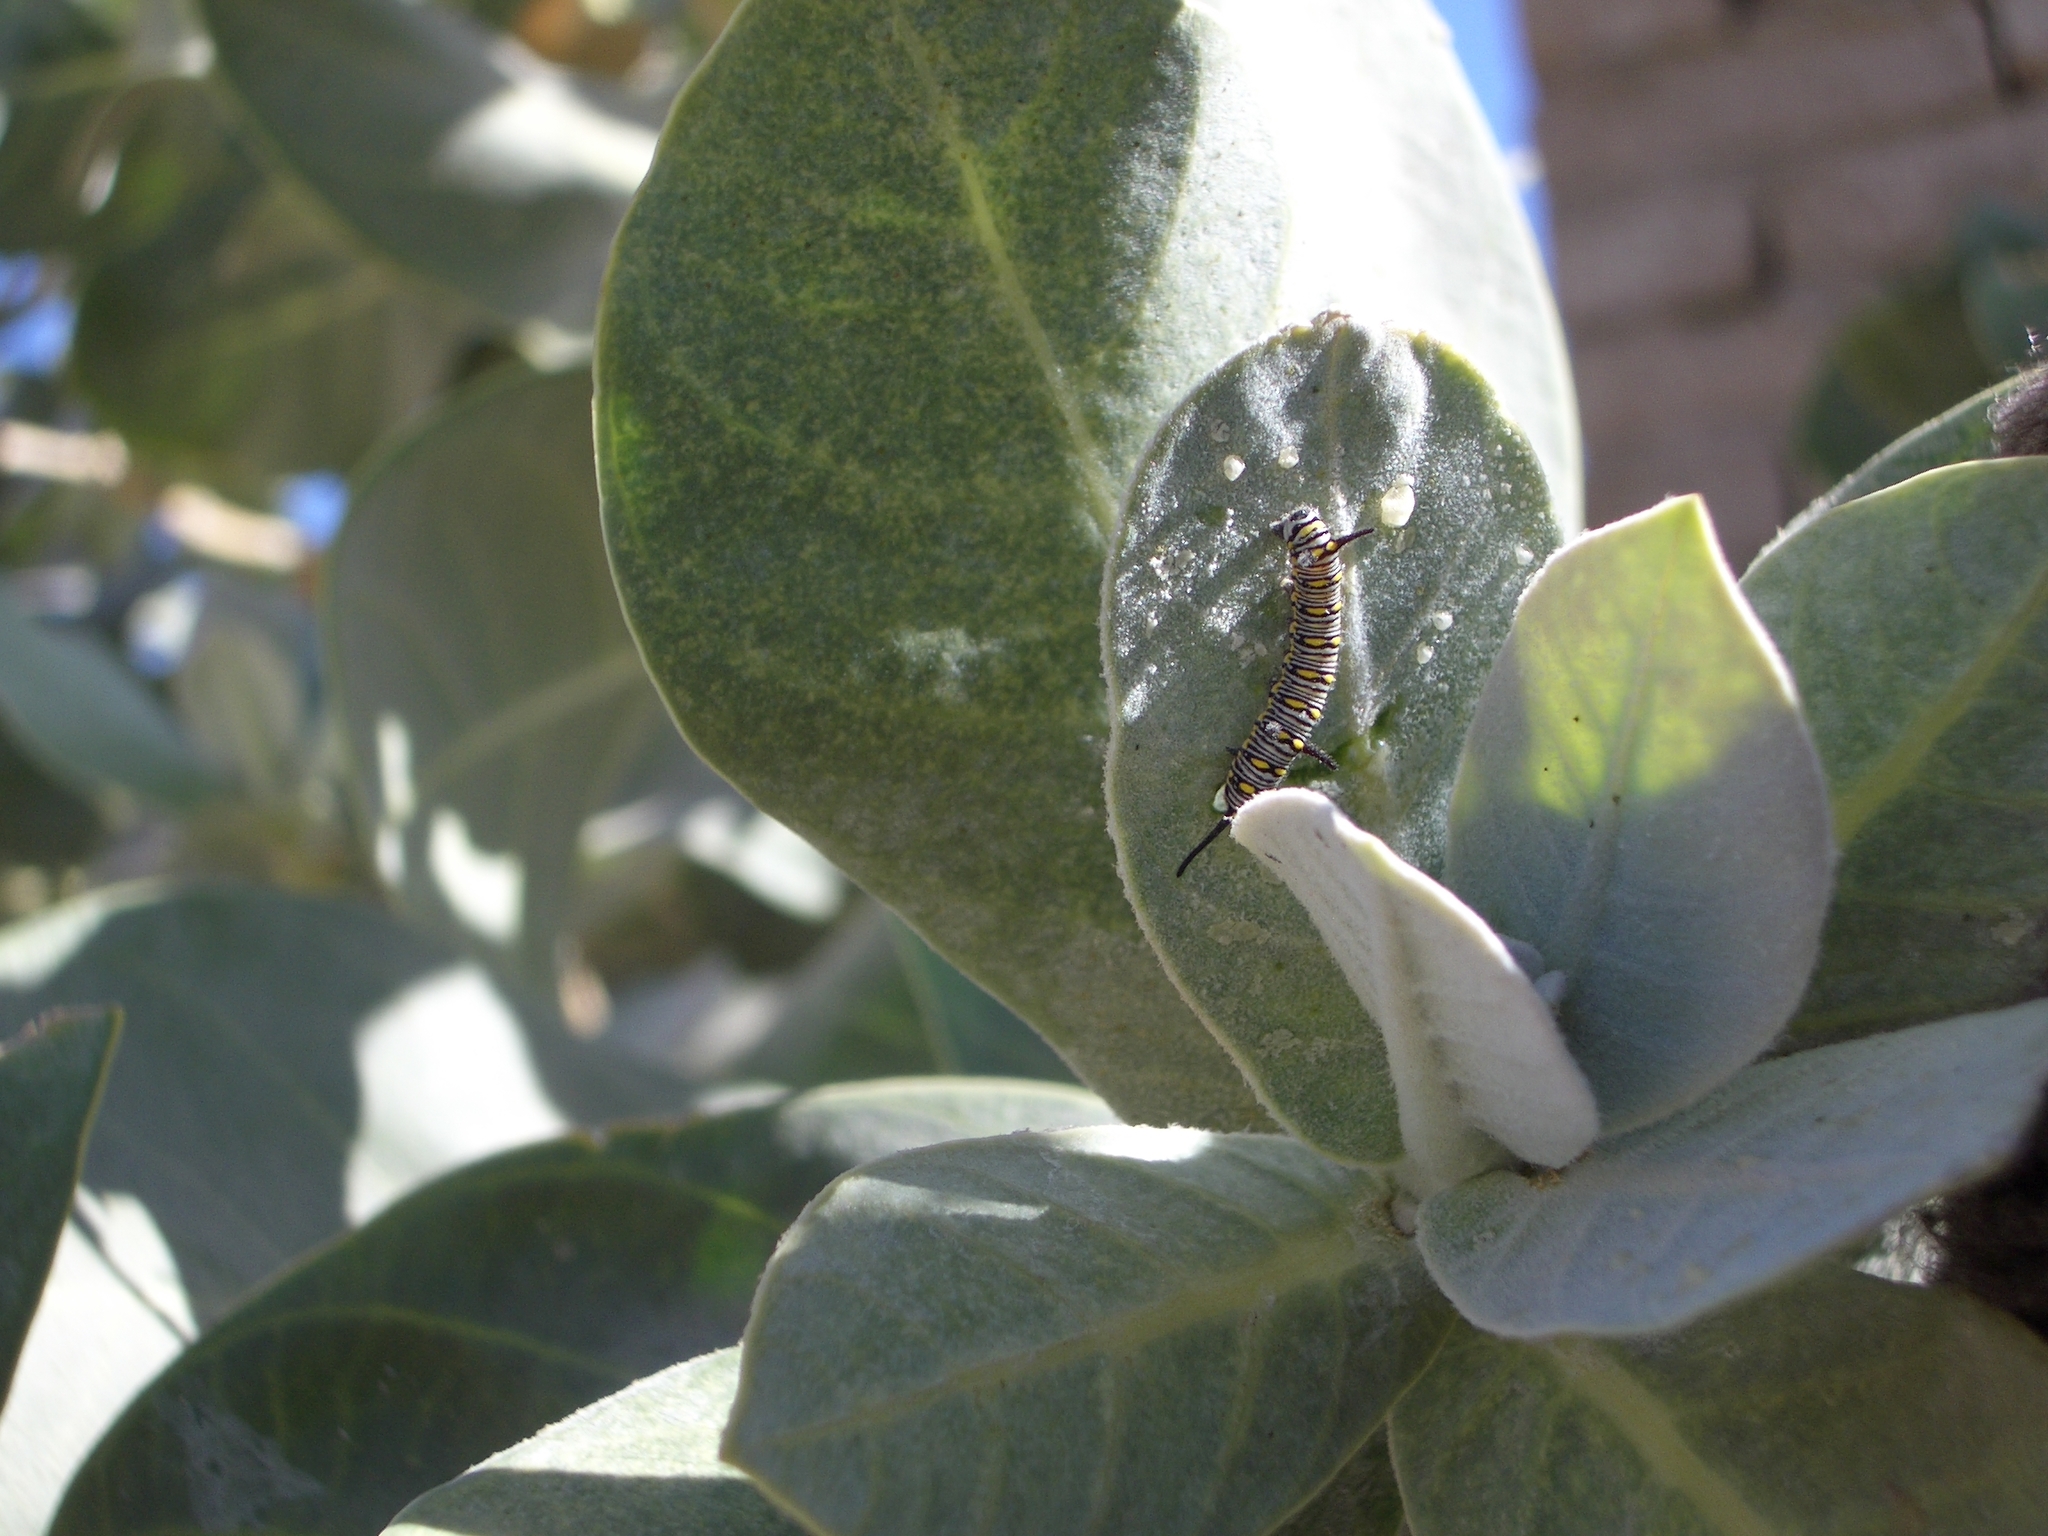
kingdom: Animalia
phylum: Arthropoda
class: Insecta
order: Lepidoptera
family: Nymphalidae
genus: Danaus
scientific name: Danaus chrysippus
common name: Plain tiger
